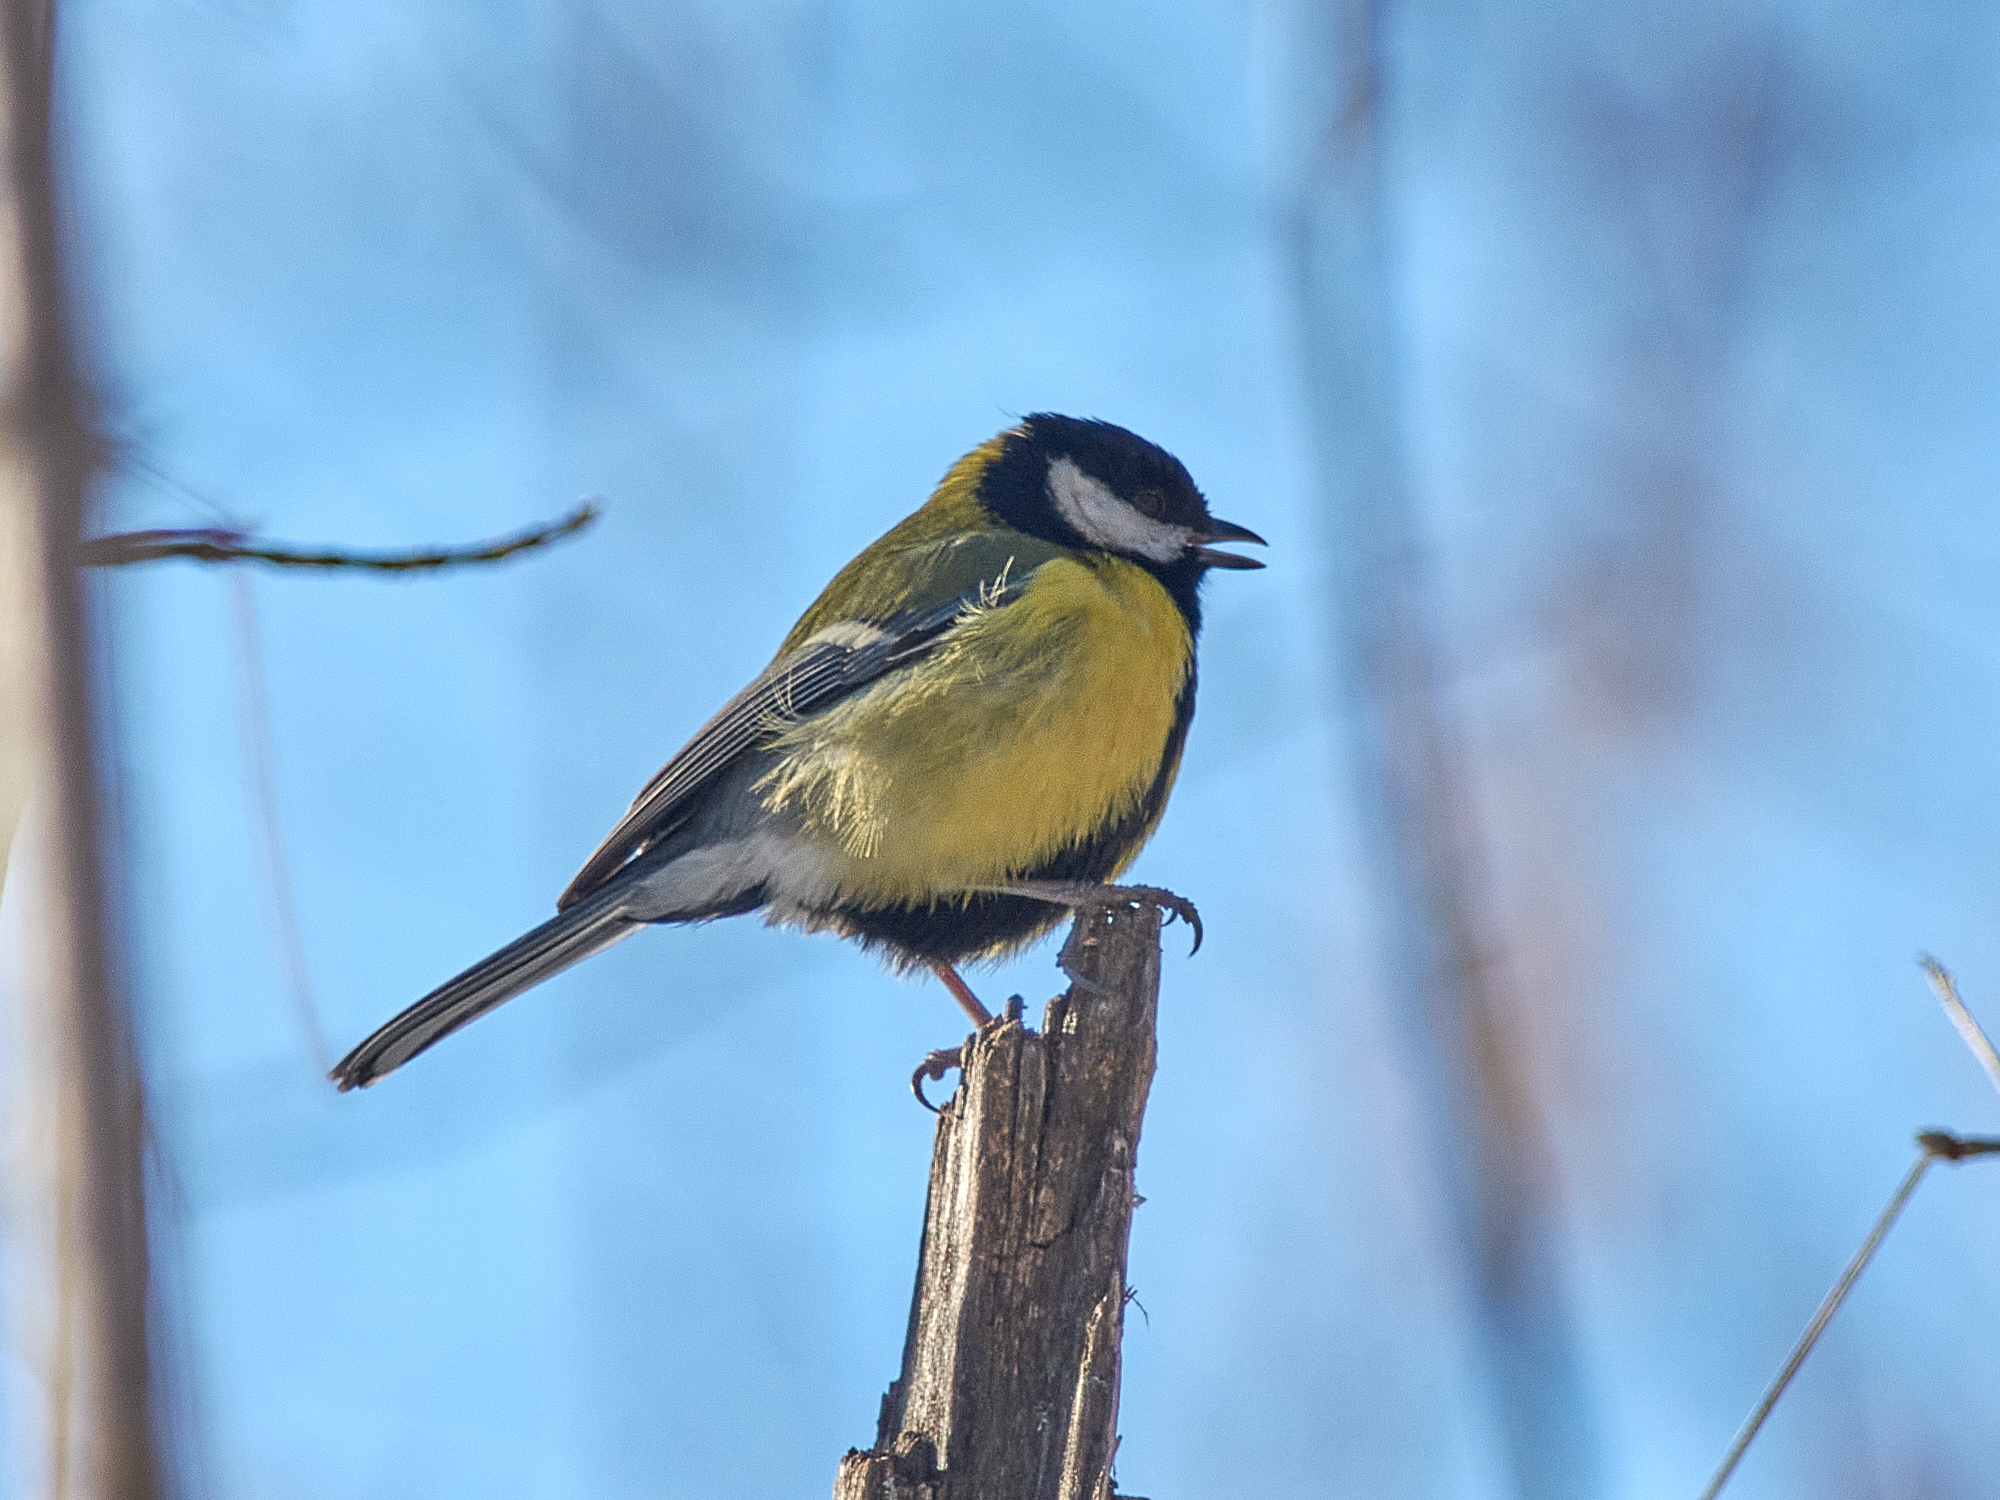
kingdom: Animalia
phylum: Chordata
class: Aves
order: Passeriformes
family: Paridae
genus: Parus
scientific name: Parus major
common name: Great tit
